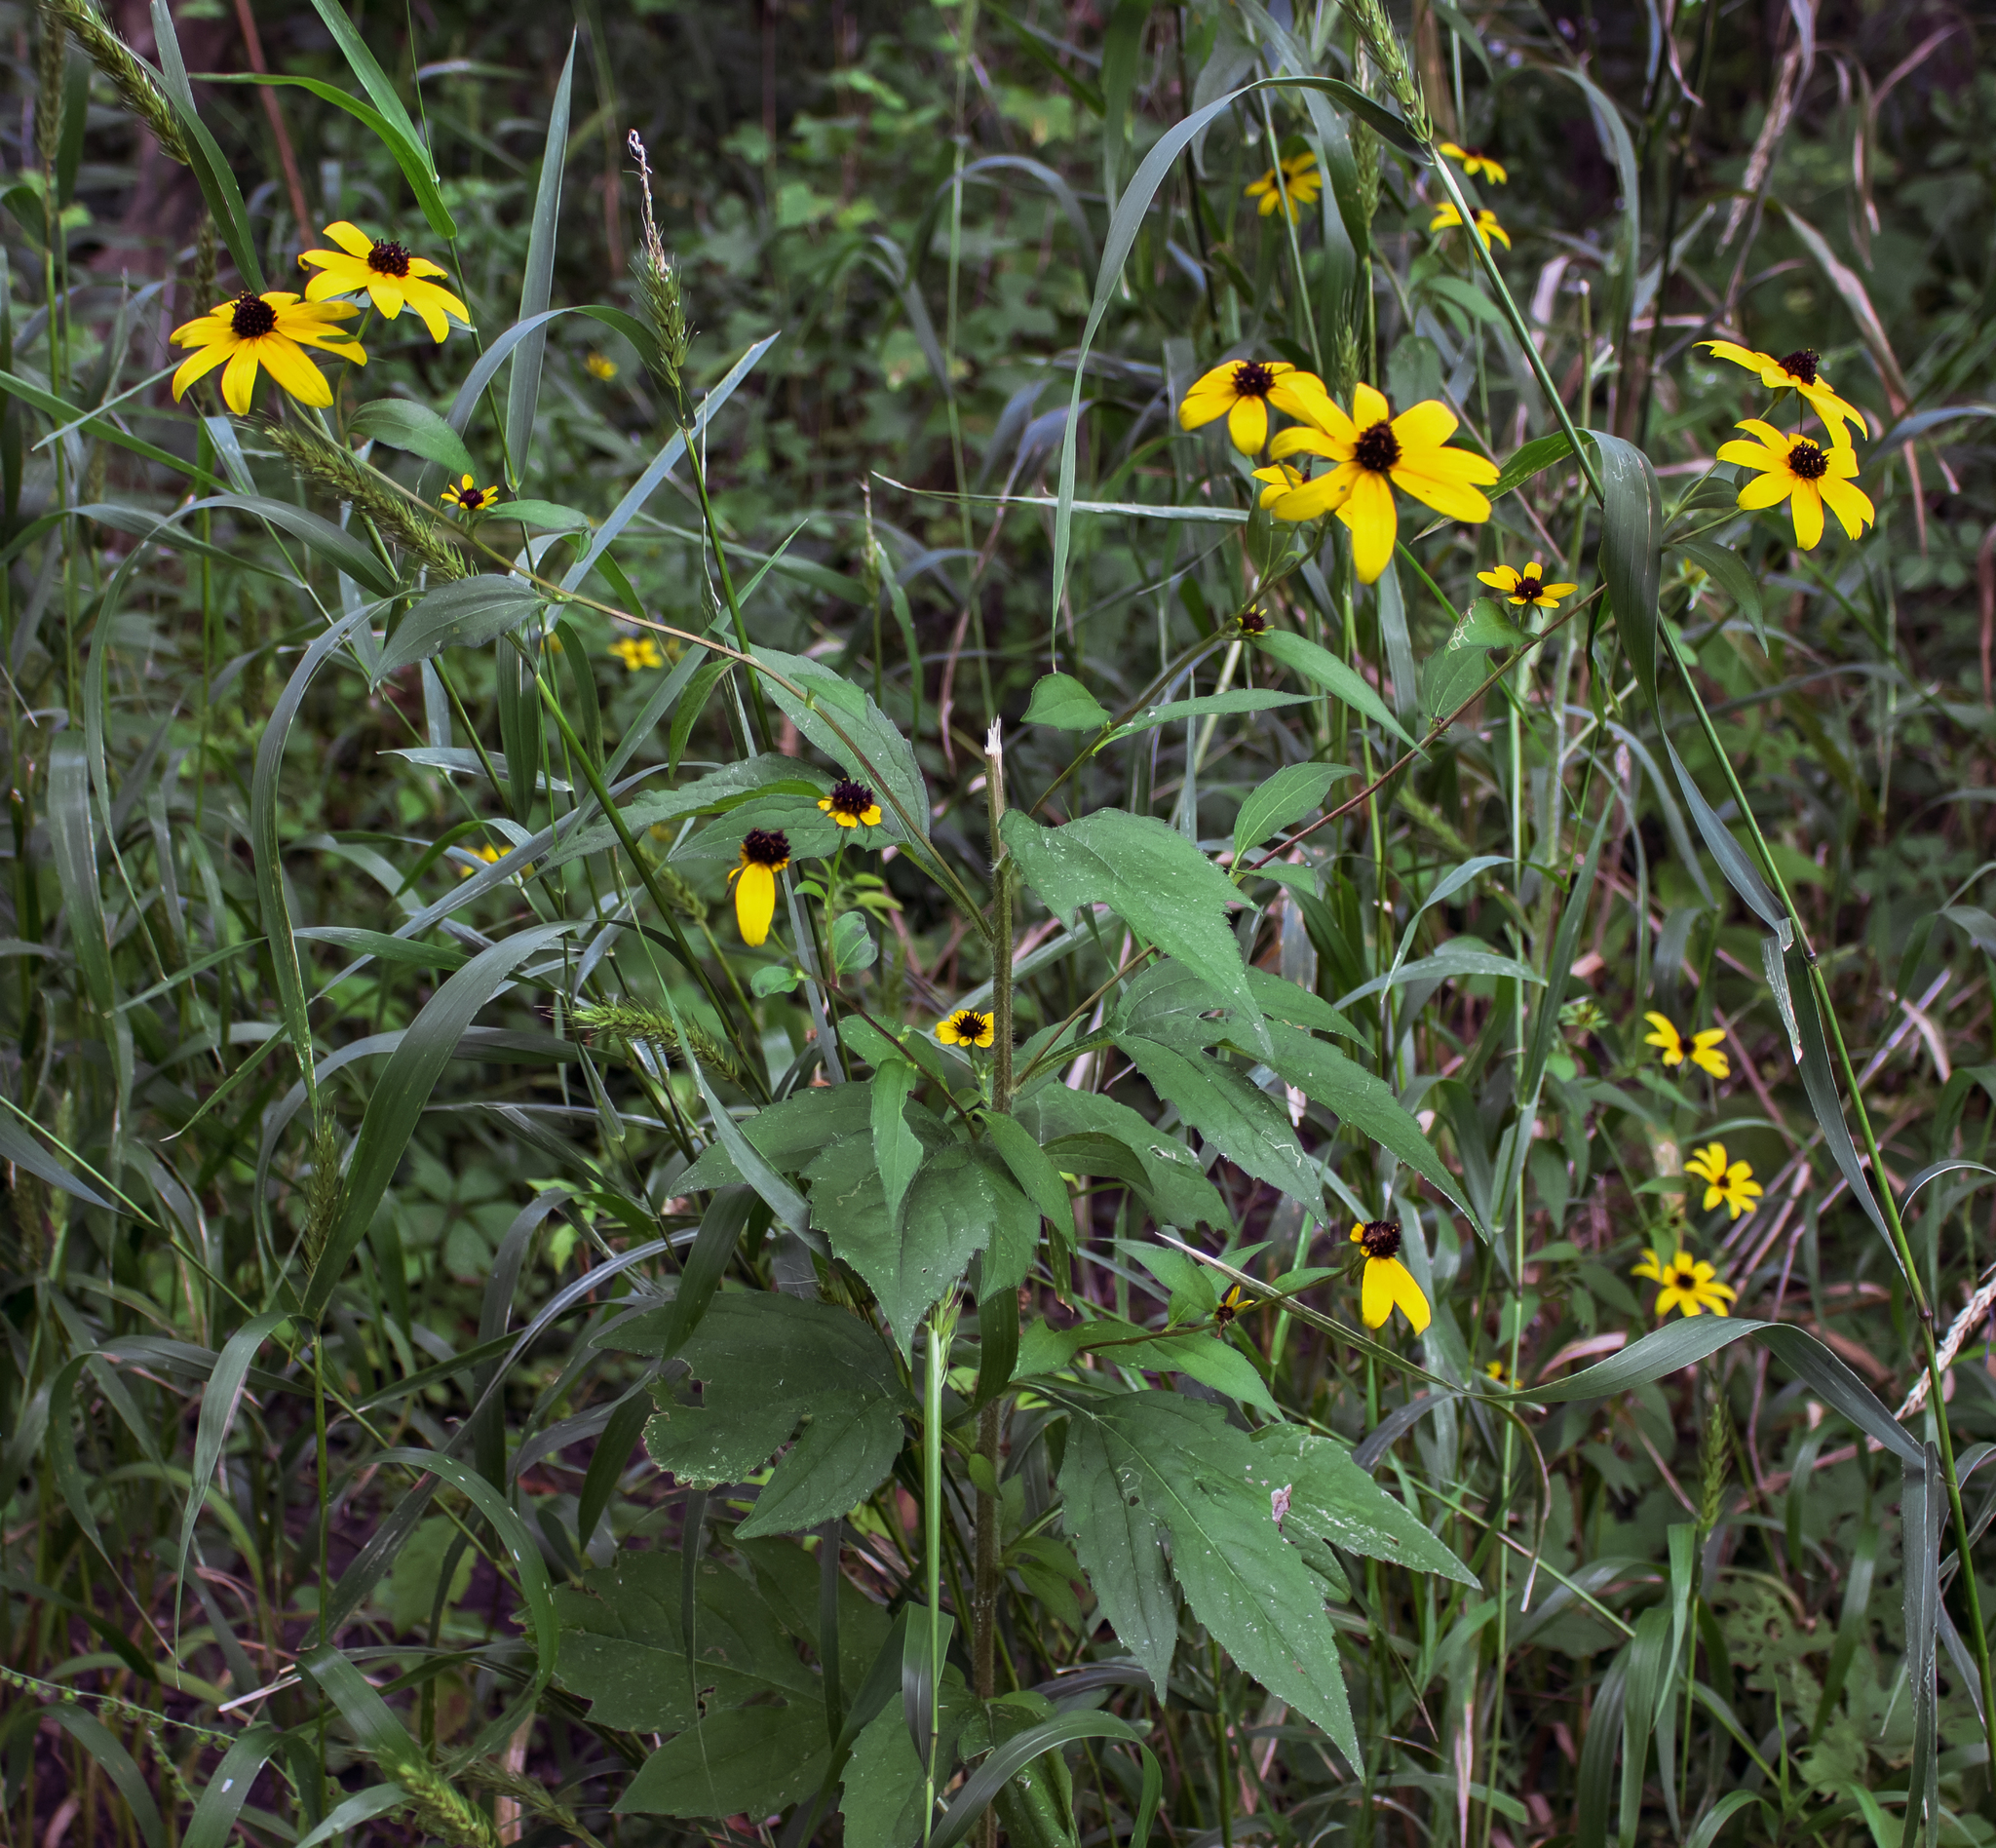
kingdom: Plantae
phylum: Tracheophyta
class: Magnoliopsida
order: Asterales
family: Asteraceae
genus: Rudbeckia
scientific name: Rudbeckia triloba
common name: Thin-leaved coneflower
